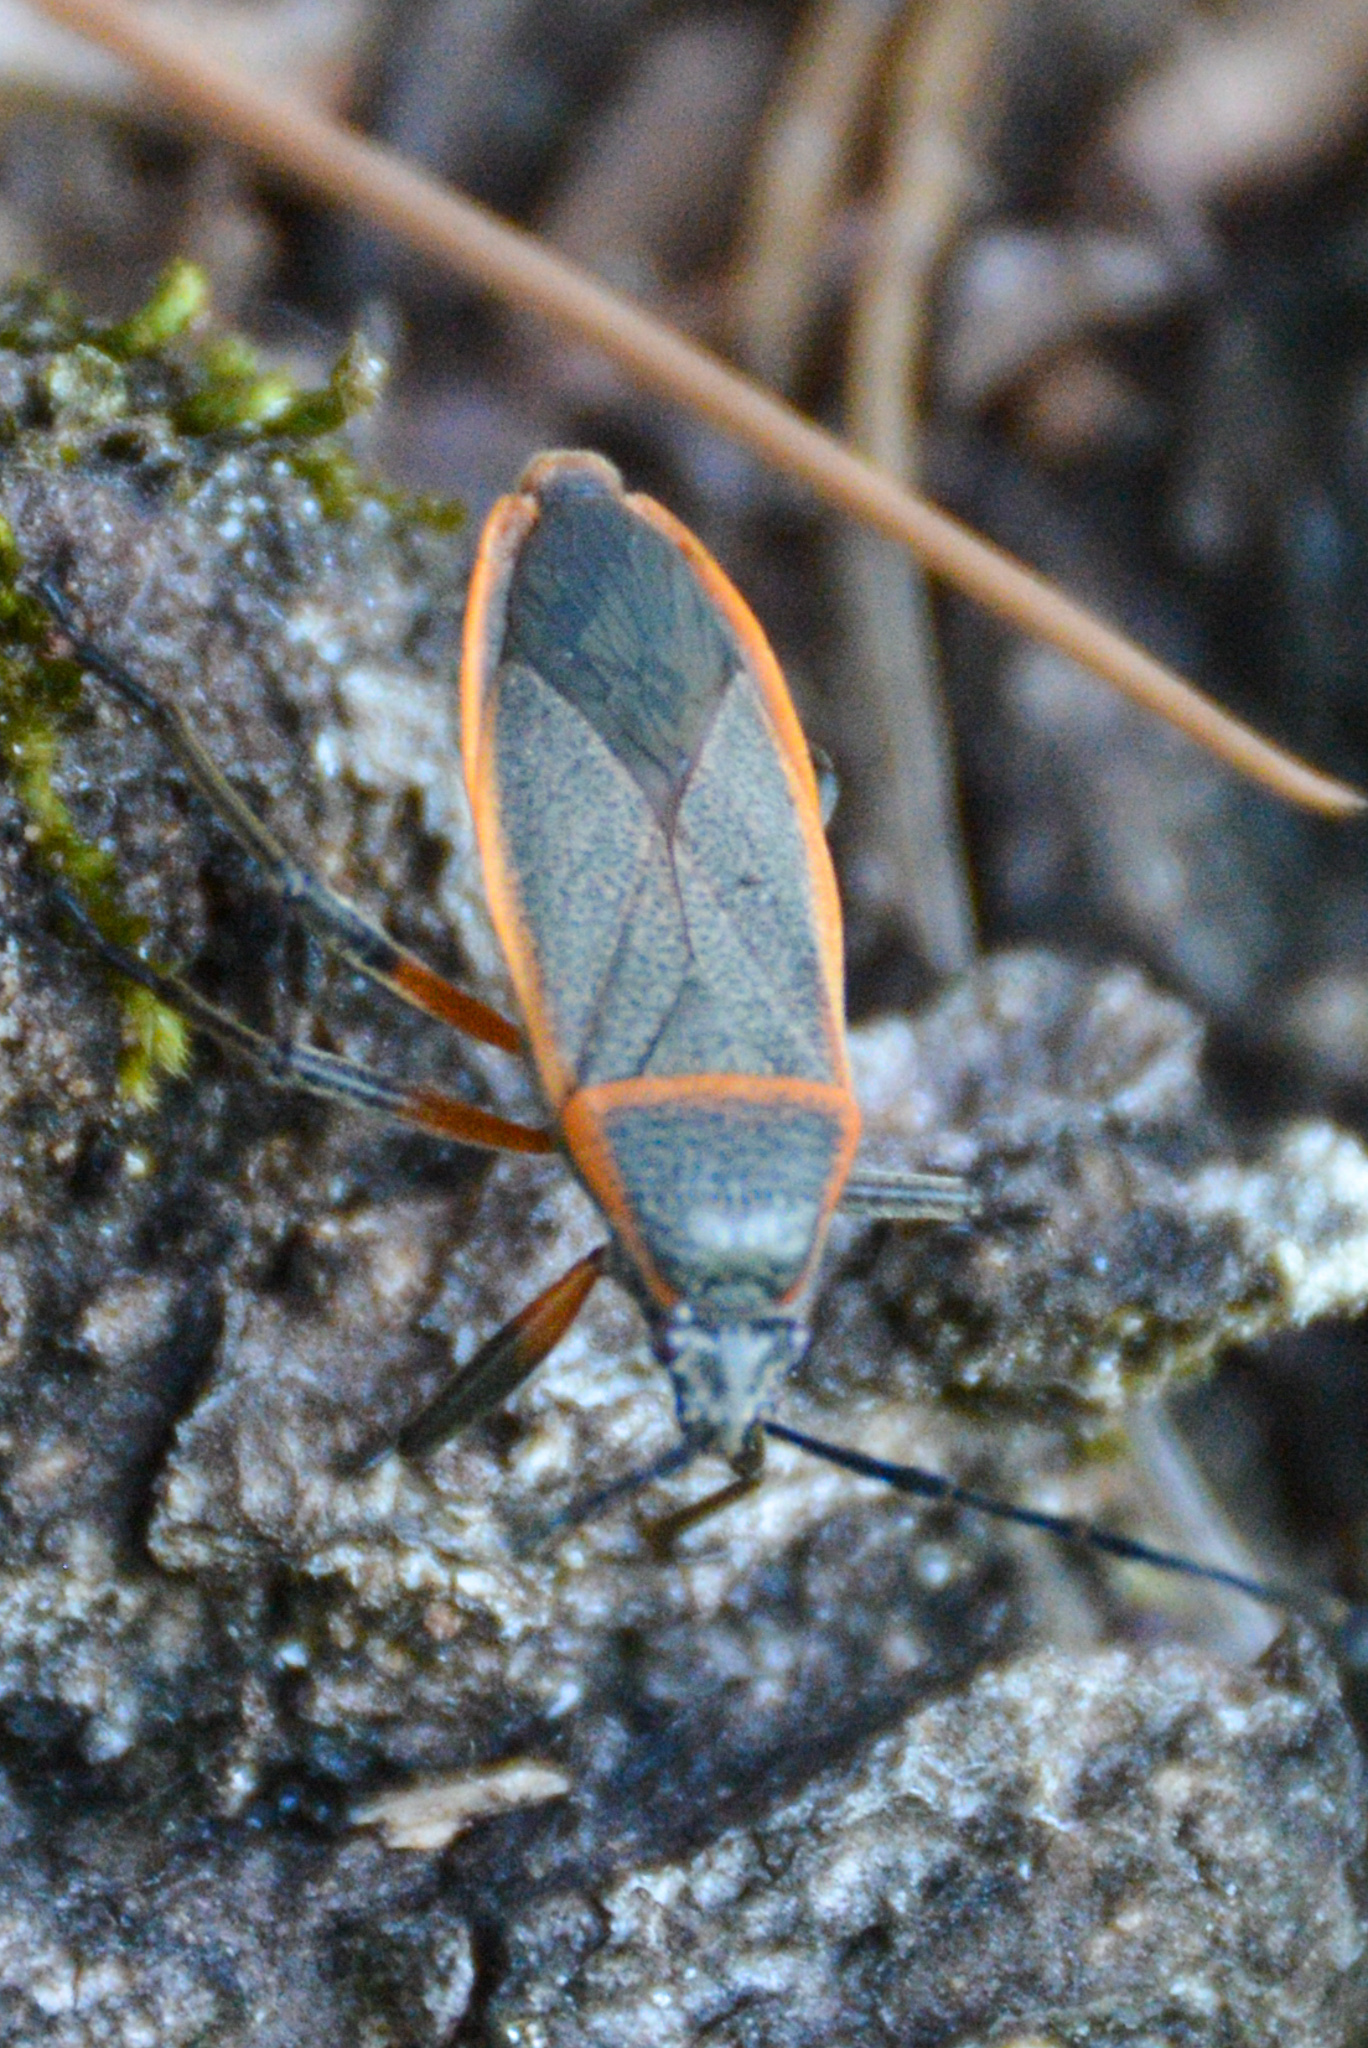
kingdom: Animalia
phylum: Arthropoda
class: Insecta
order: Hemiptera
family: Largidae
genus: Largus
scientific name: Largus succinctus
